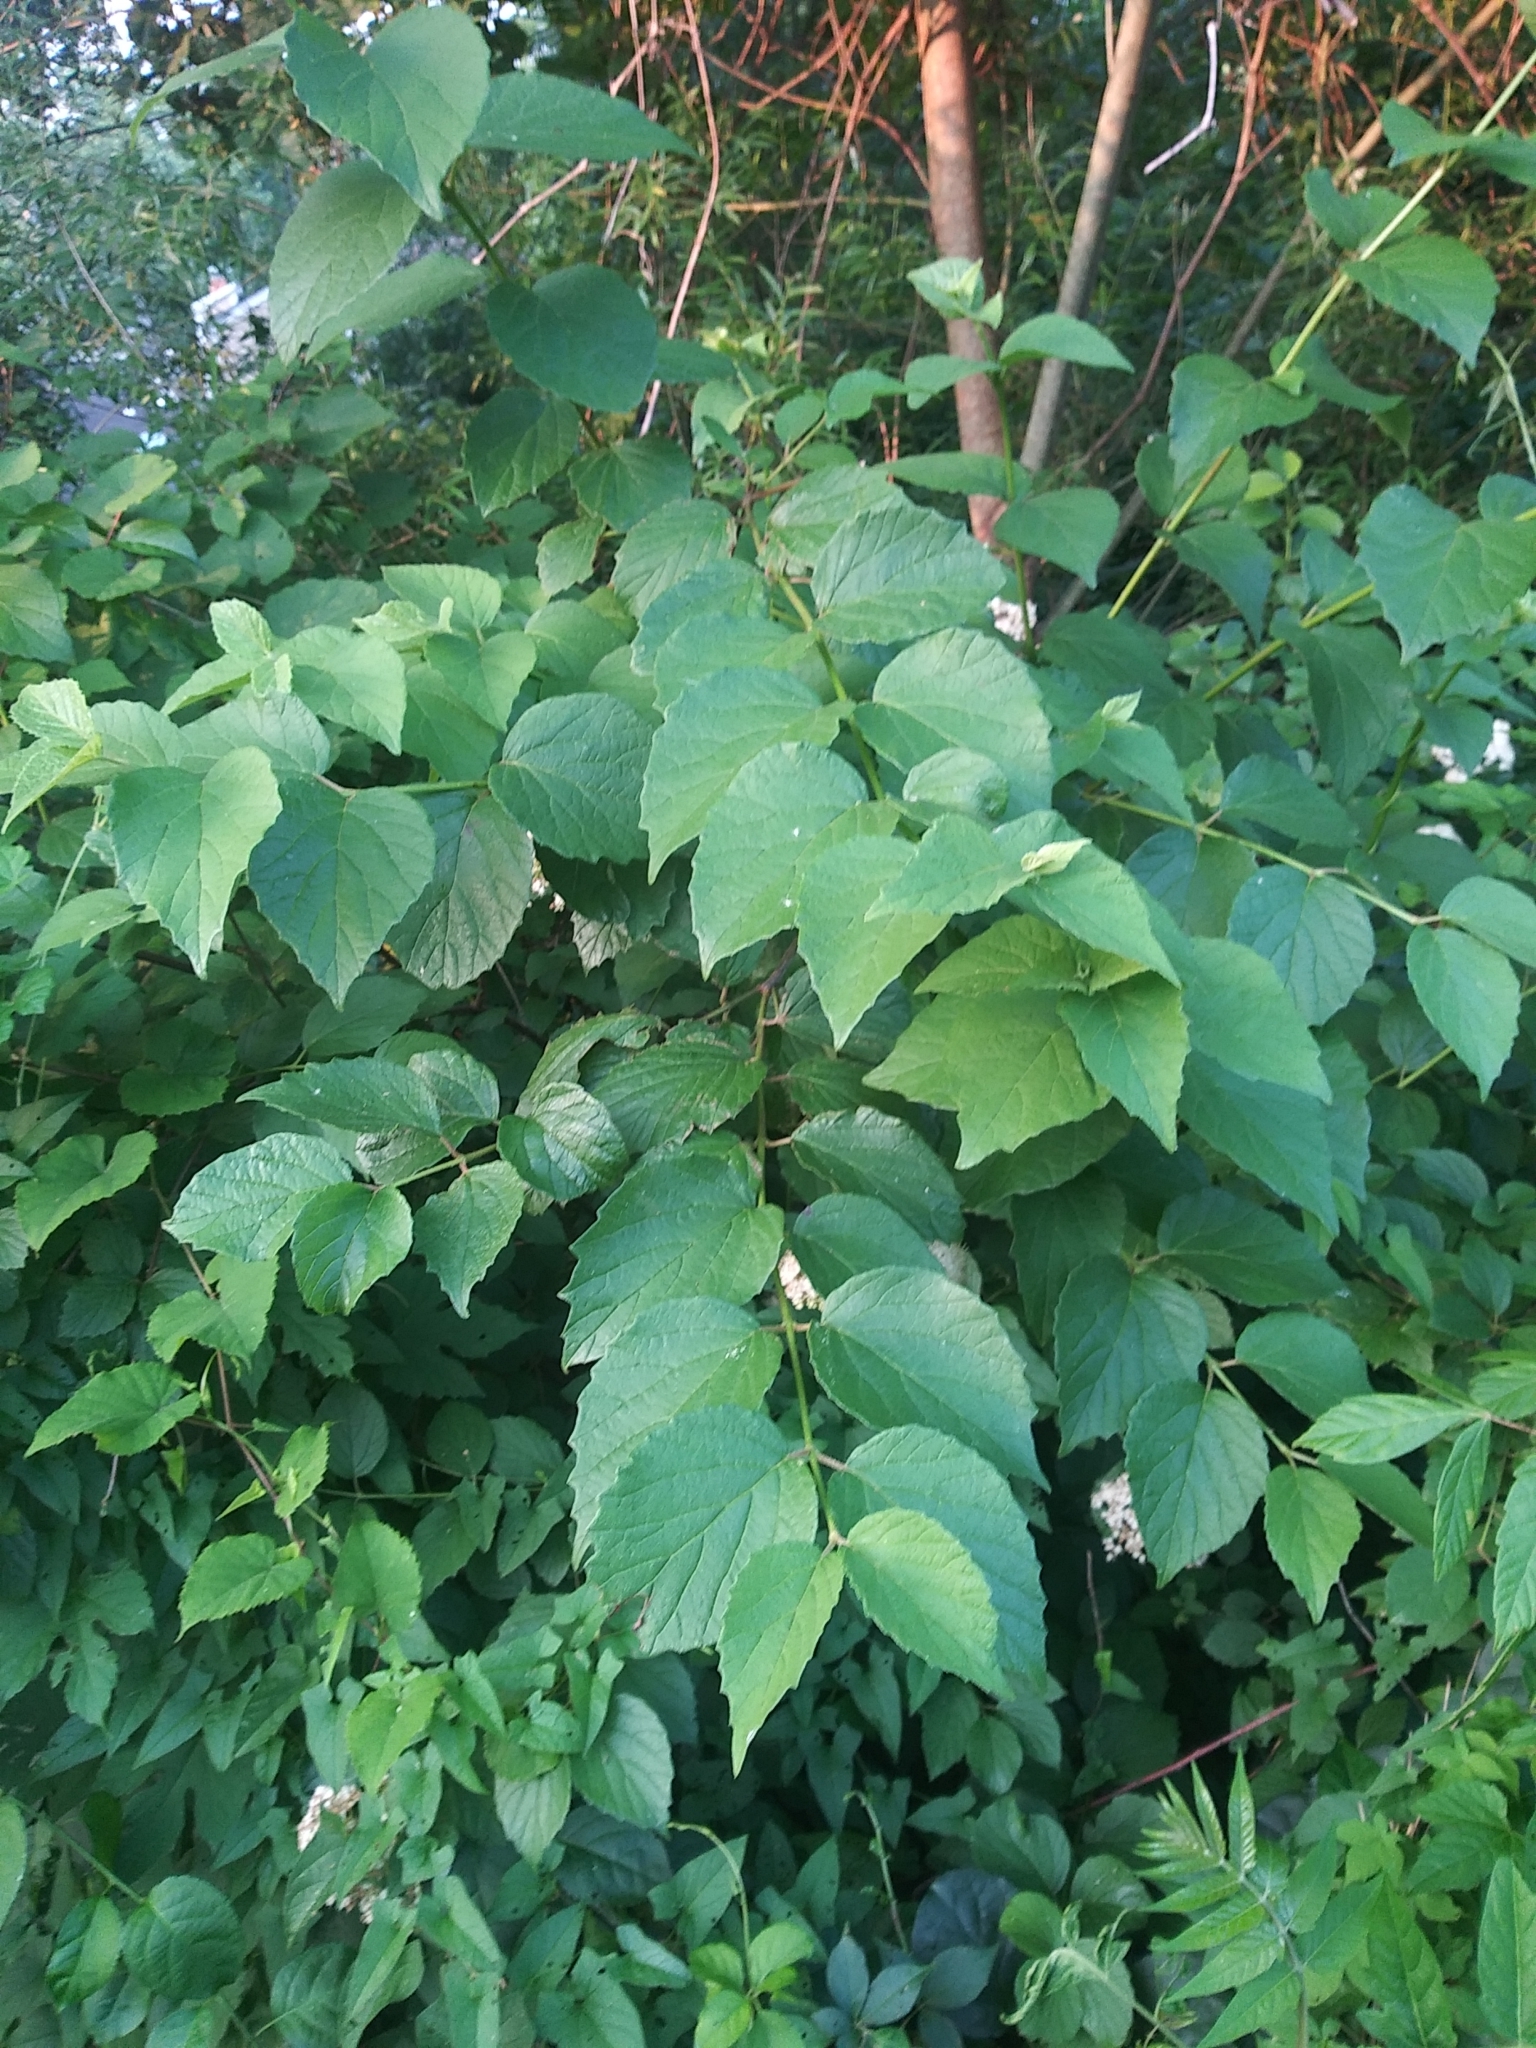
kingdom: Plantae
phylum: Tracheophyta
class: Magnoliopsida
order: Dipsacales
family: Viburnaceae
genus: Viburnum
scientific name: Viburnum dilatatum
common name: Linden arrowwood
